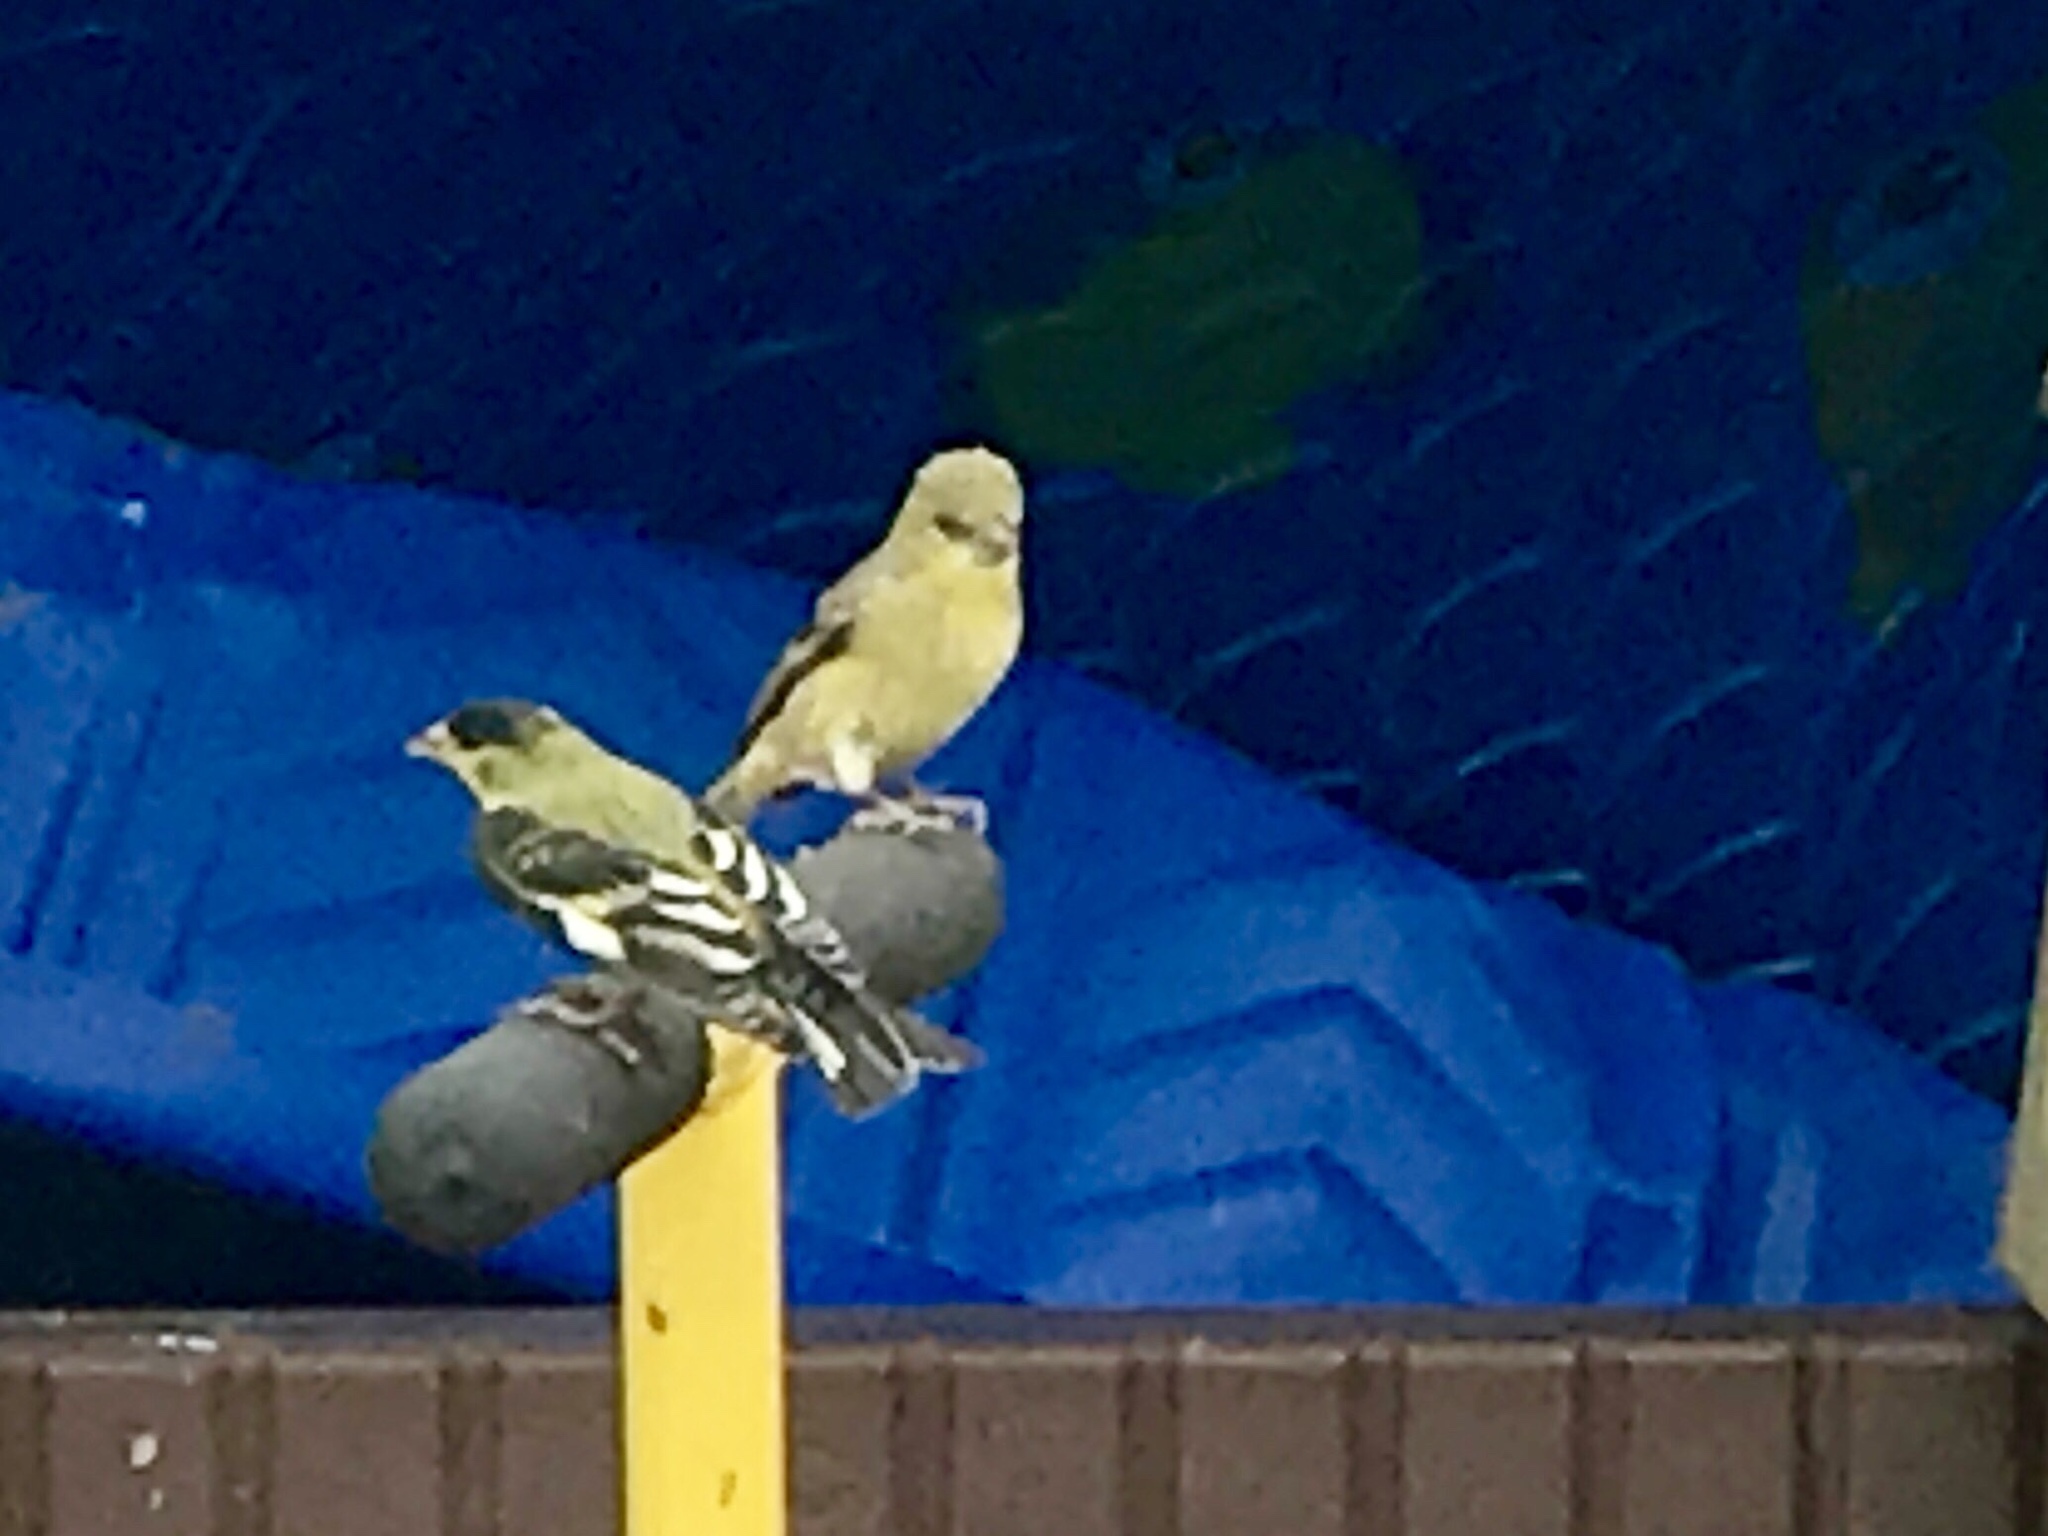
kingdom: Animalia
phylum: Chordata
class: Aves
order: Passeriformes
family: Fringillidae
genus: Spinus
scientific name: Spinus psaltria
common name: Lesser goldfinch
